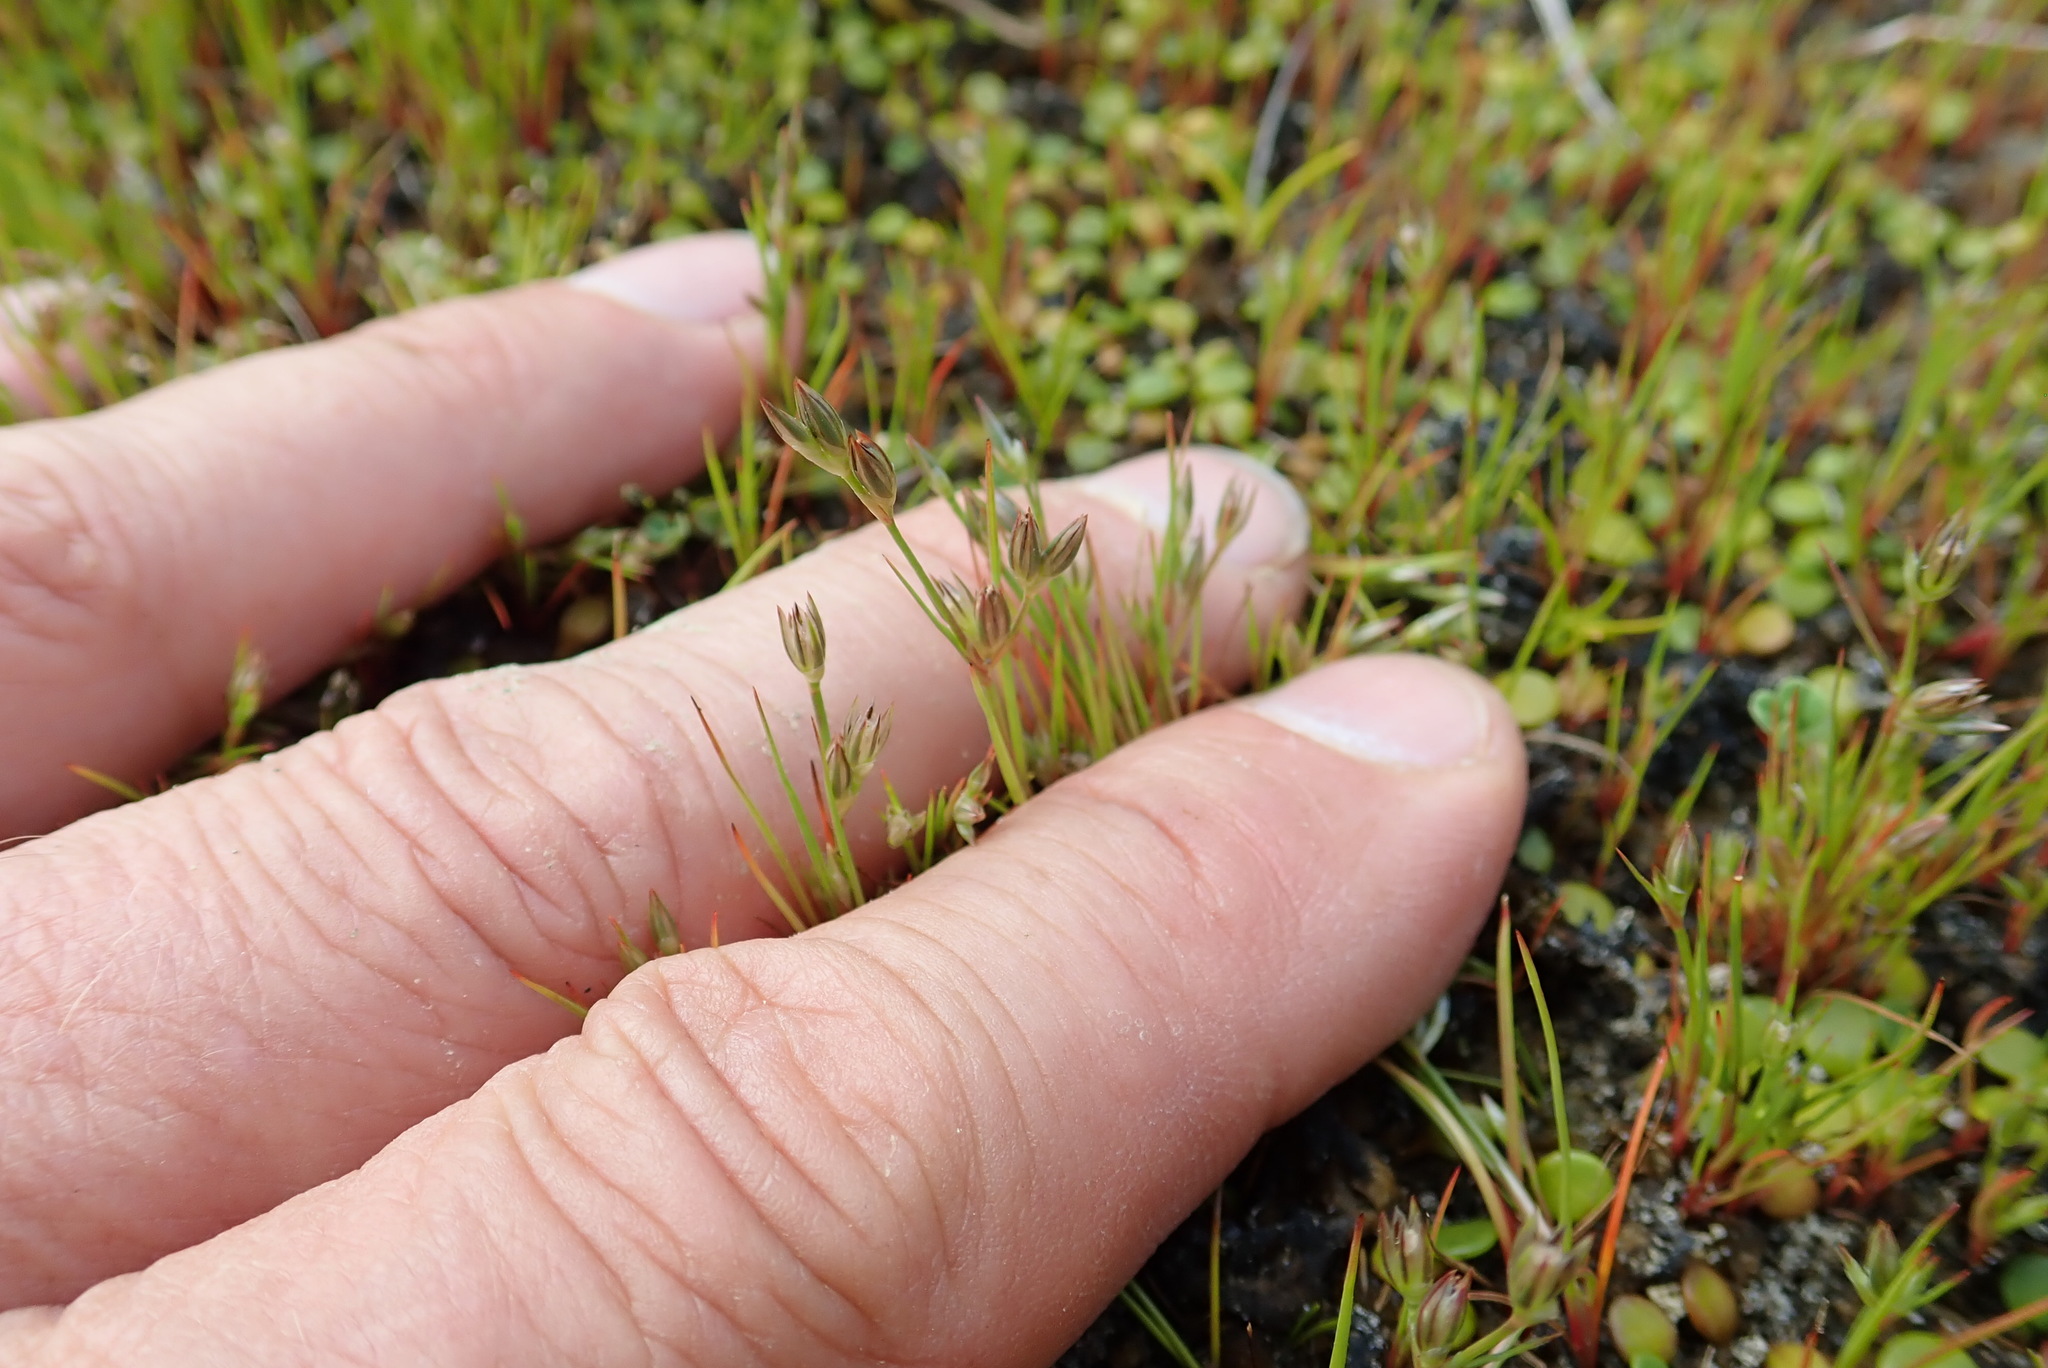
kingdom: Plantae
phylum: Tracheophyta
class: Liliopsida
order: Poales
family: Juncaceae
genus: Juncus
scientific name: Juncus bufonius
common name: Toad rush
